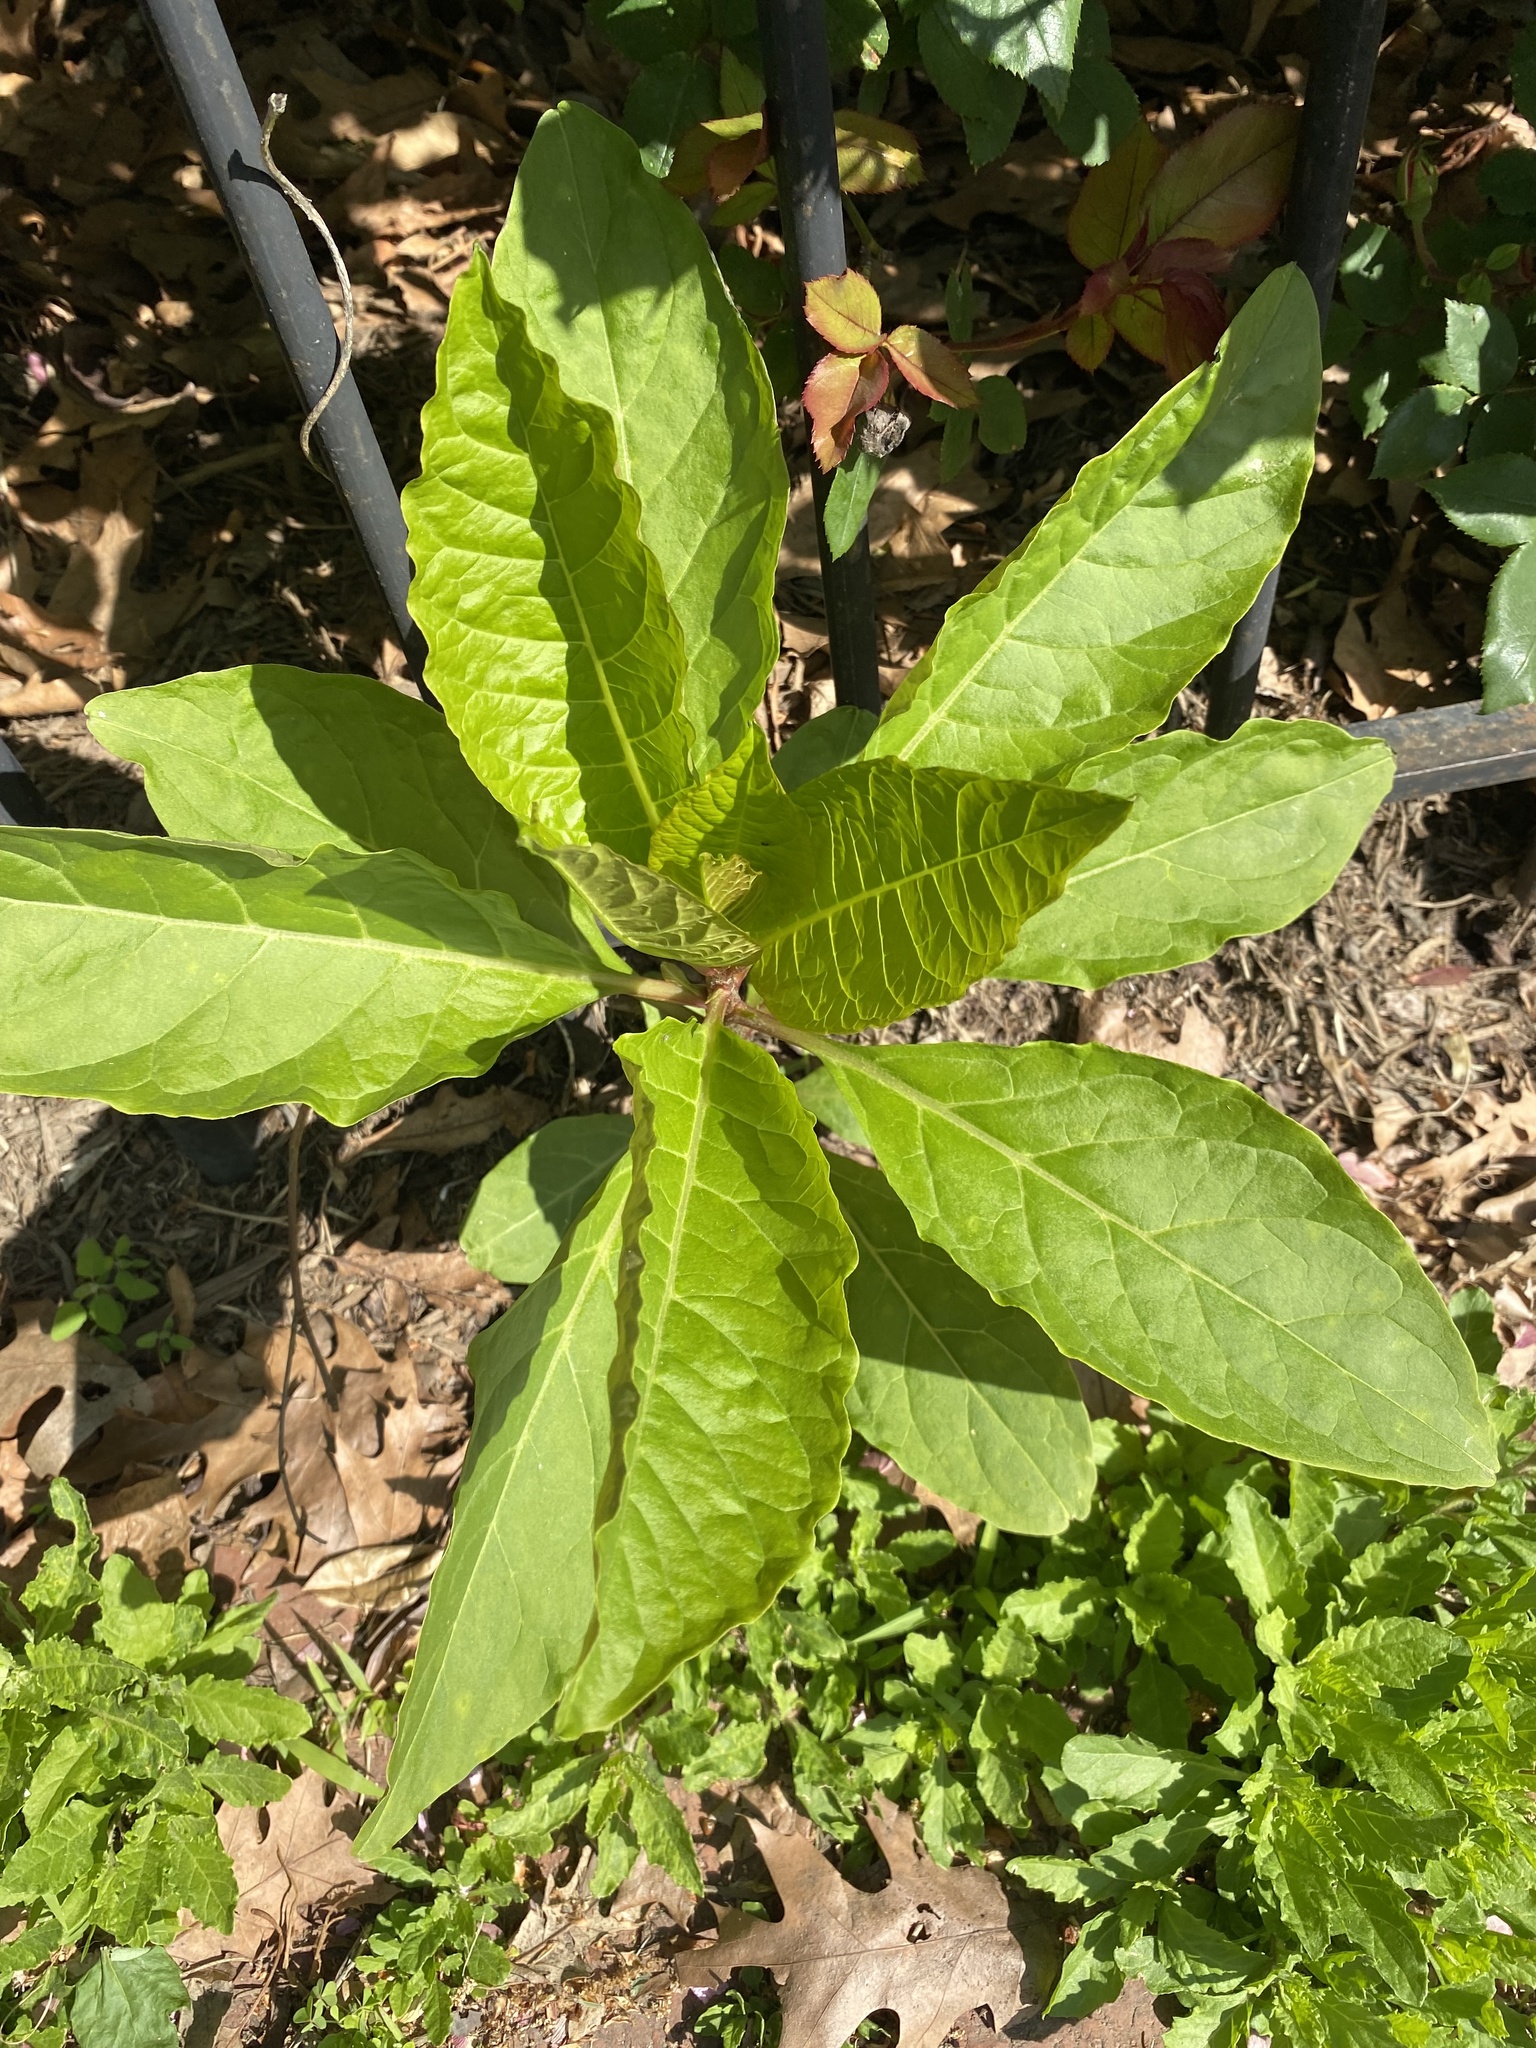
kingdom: Plantae
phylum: Tracheophyta
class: Magnoliopsida
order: Caryophyllales
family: Phytolaccaceae
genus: Phytolacca
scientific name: Phytolacca americana
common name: American pokeweed
